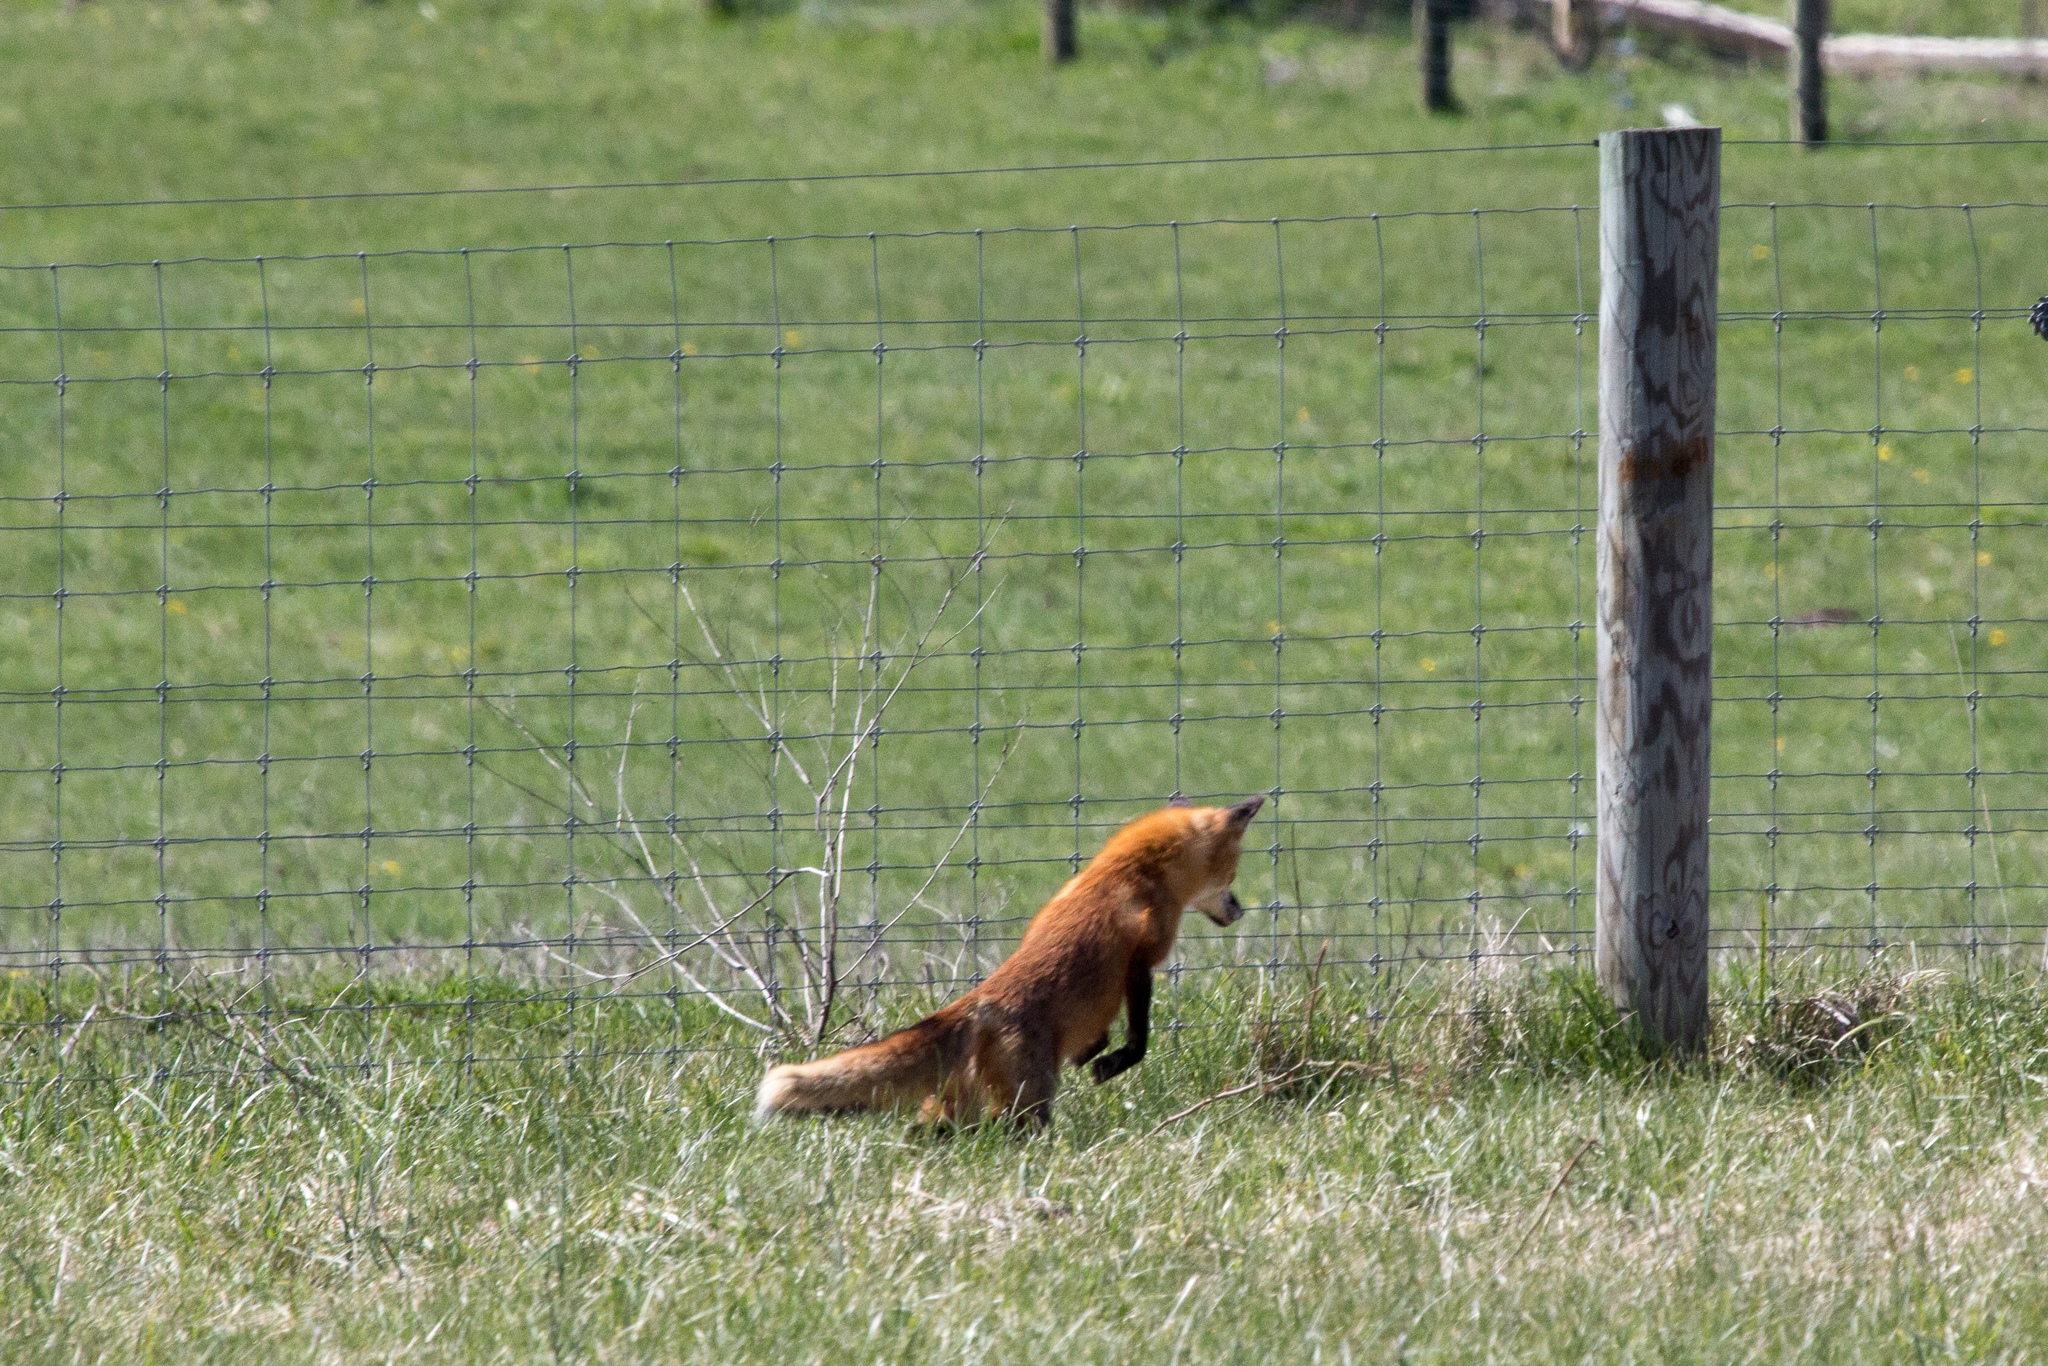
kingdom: Animalia
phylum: Chordata
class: Mammalia
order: Carnivora
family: Canidae
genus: Vulpes
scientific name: Vulpes vulpes
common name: Red fox
